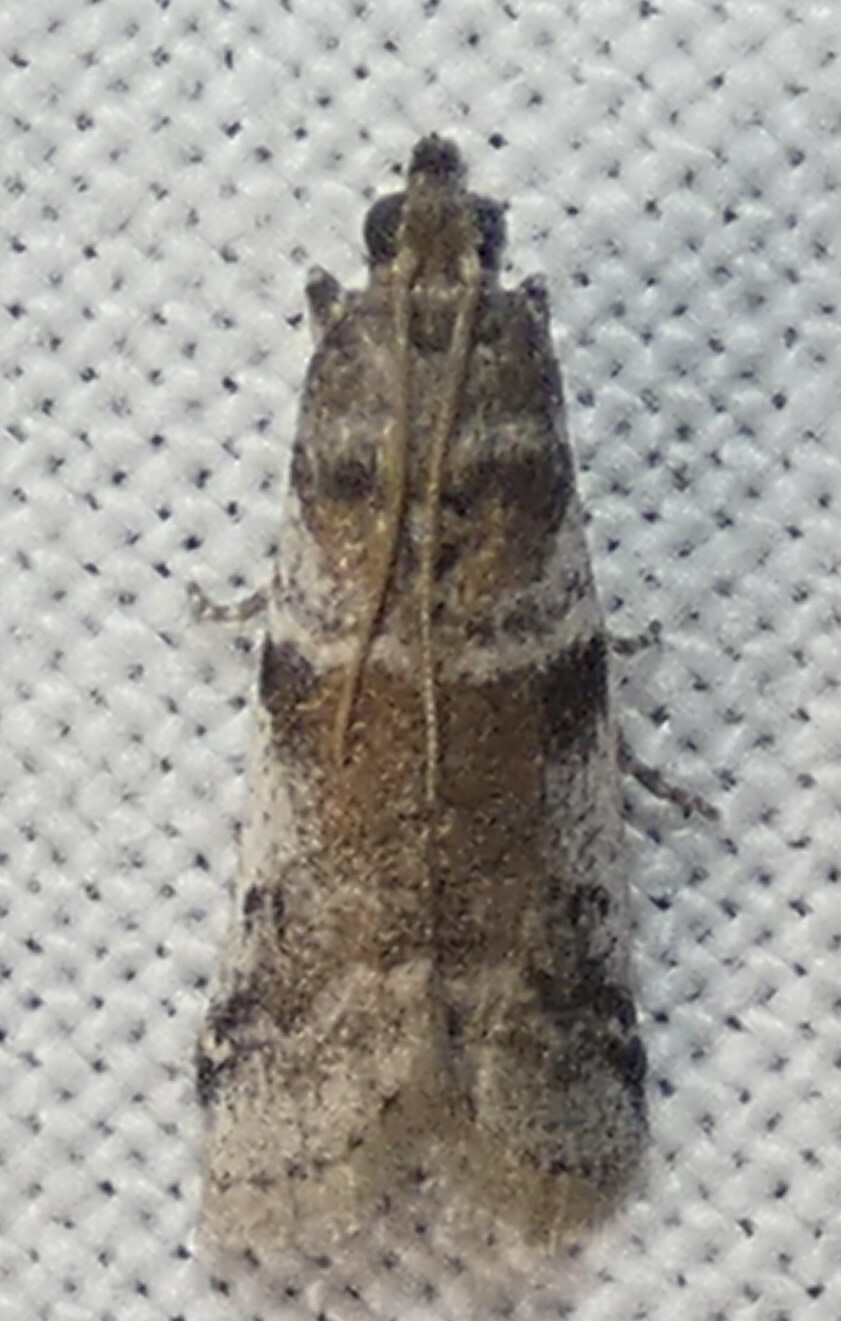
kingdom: Animalia
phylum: Arthropoda
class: Insecta
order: Lepidoptera
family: Pyralidae
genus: Laetilia
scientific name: Laetilia coccidivora
